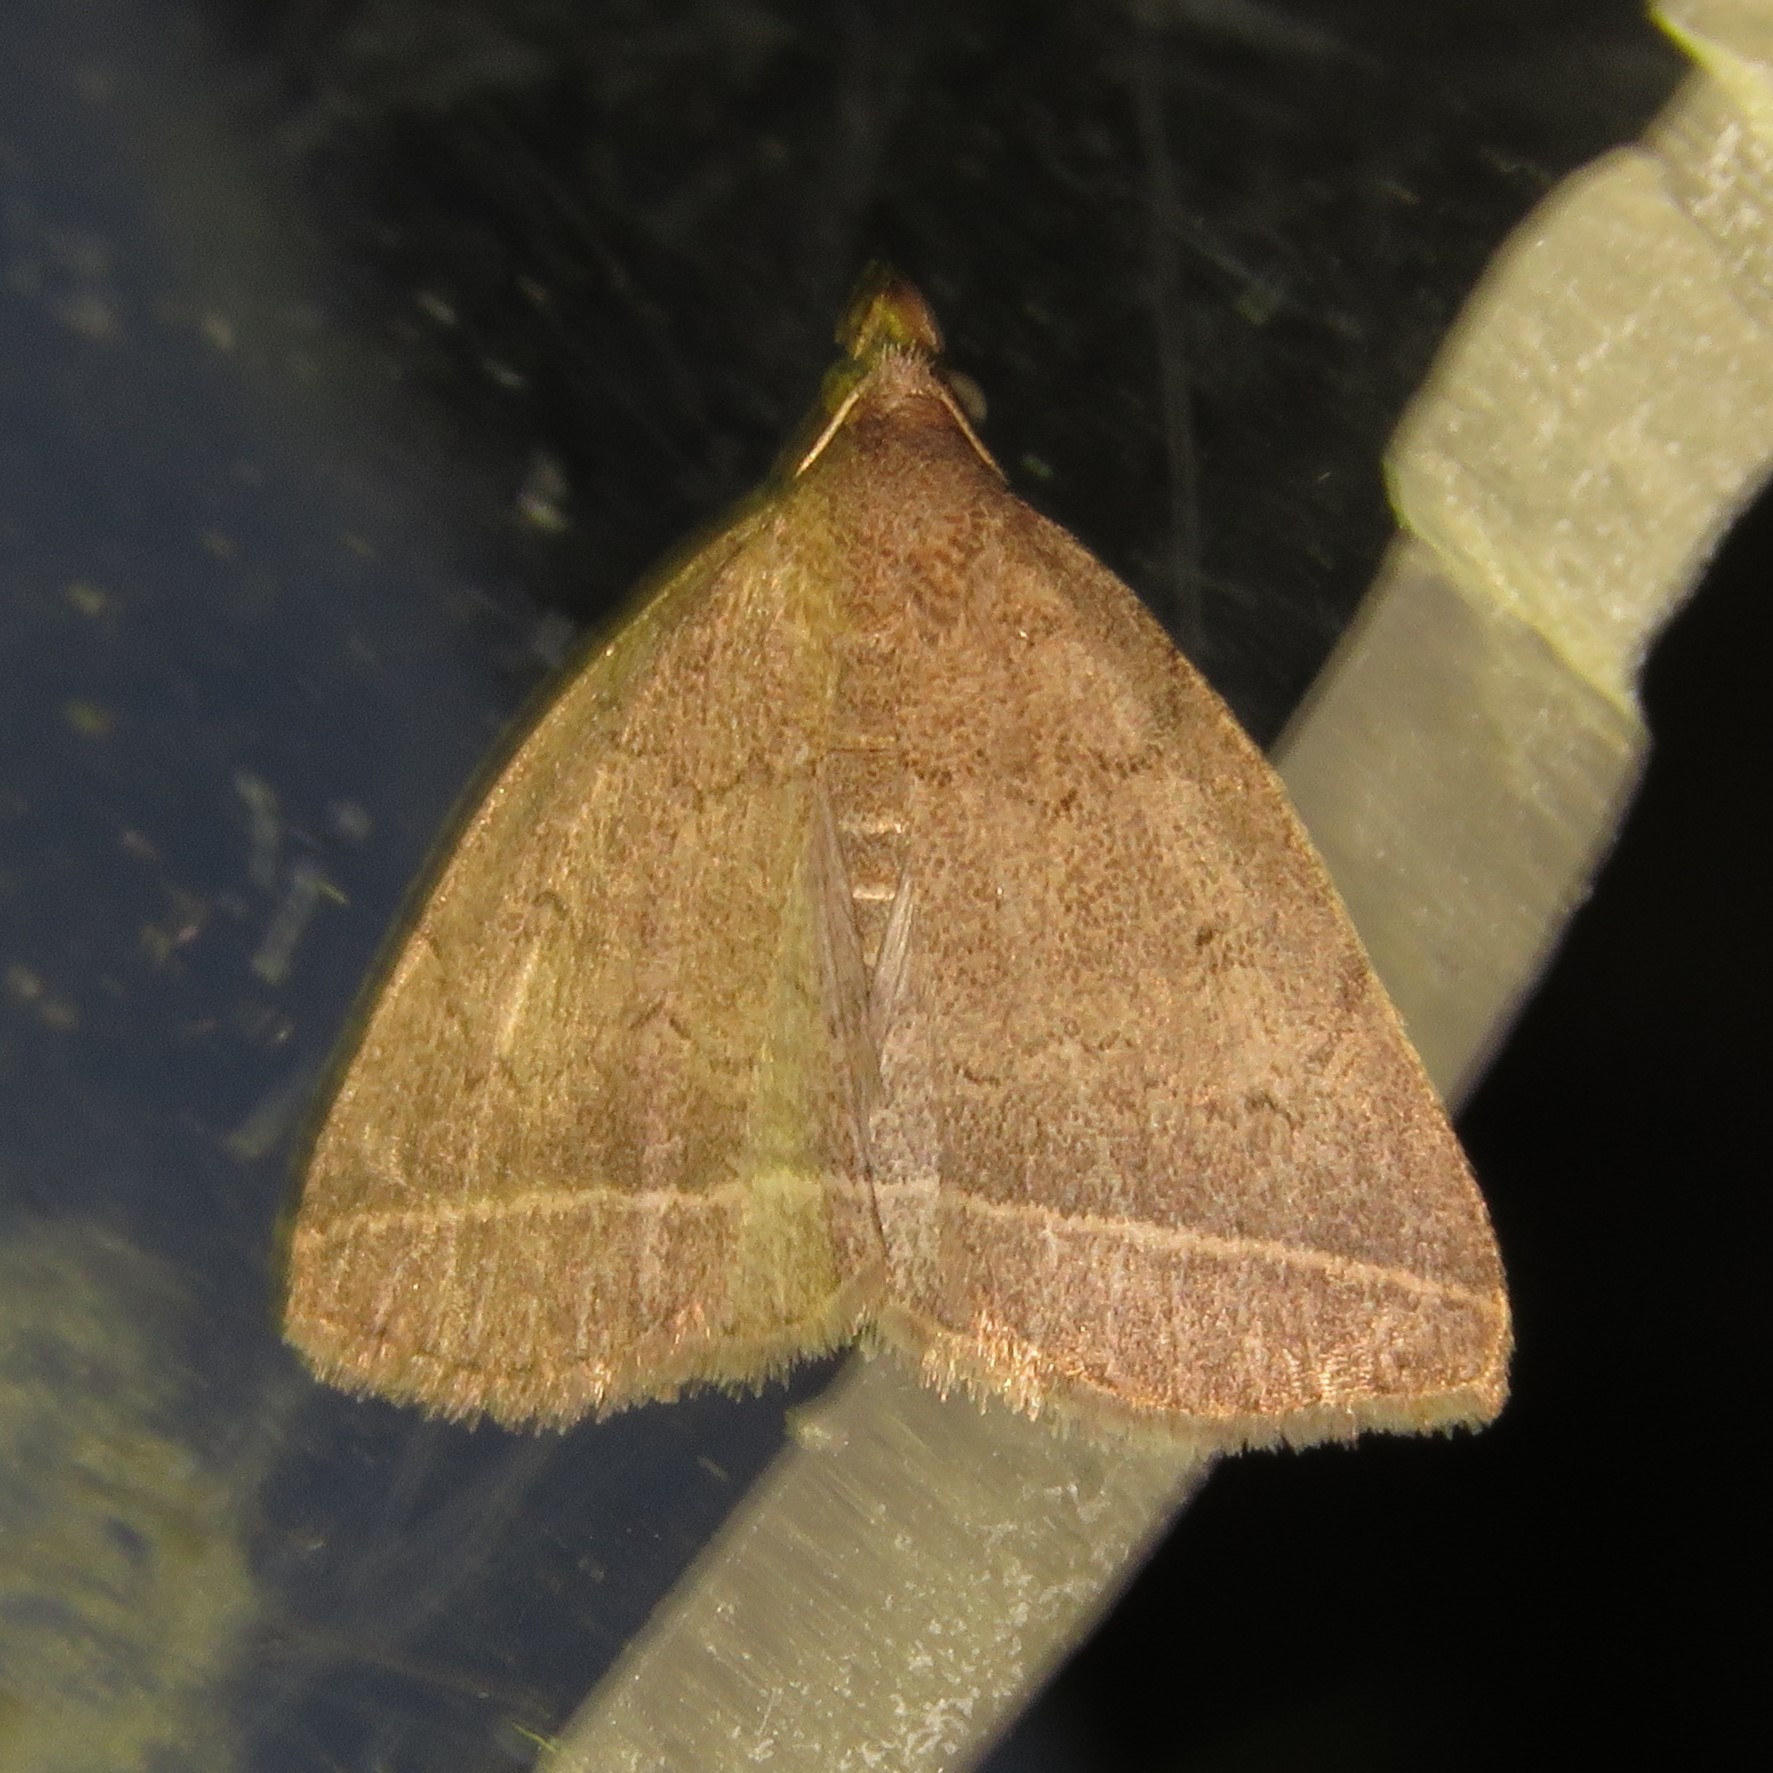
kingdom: Animalia
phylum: Arthropoda
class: Insecta
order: Lepidoptera
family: Erebidae
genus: Zanclognatha
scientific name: Zanclognatha marcidilinea
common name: Yellowish fan-foot
